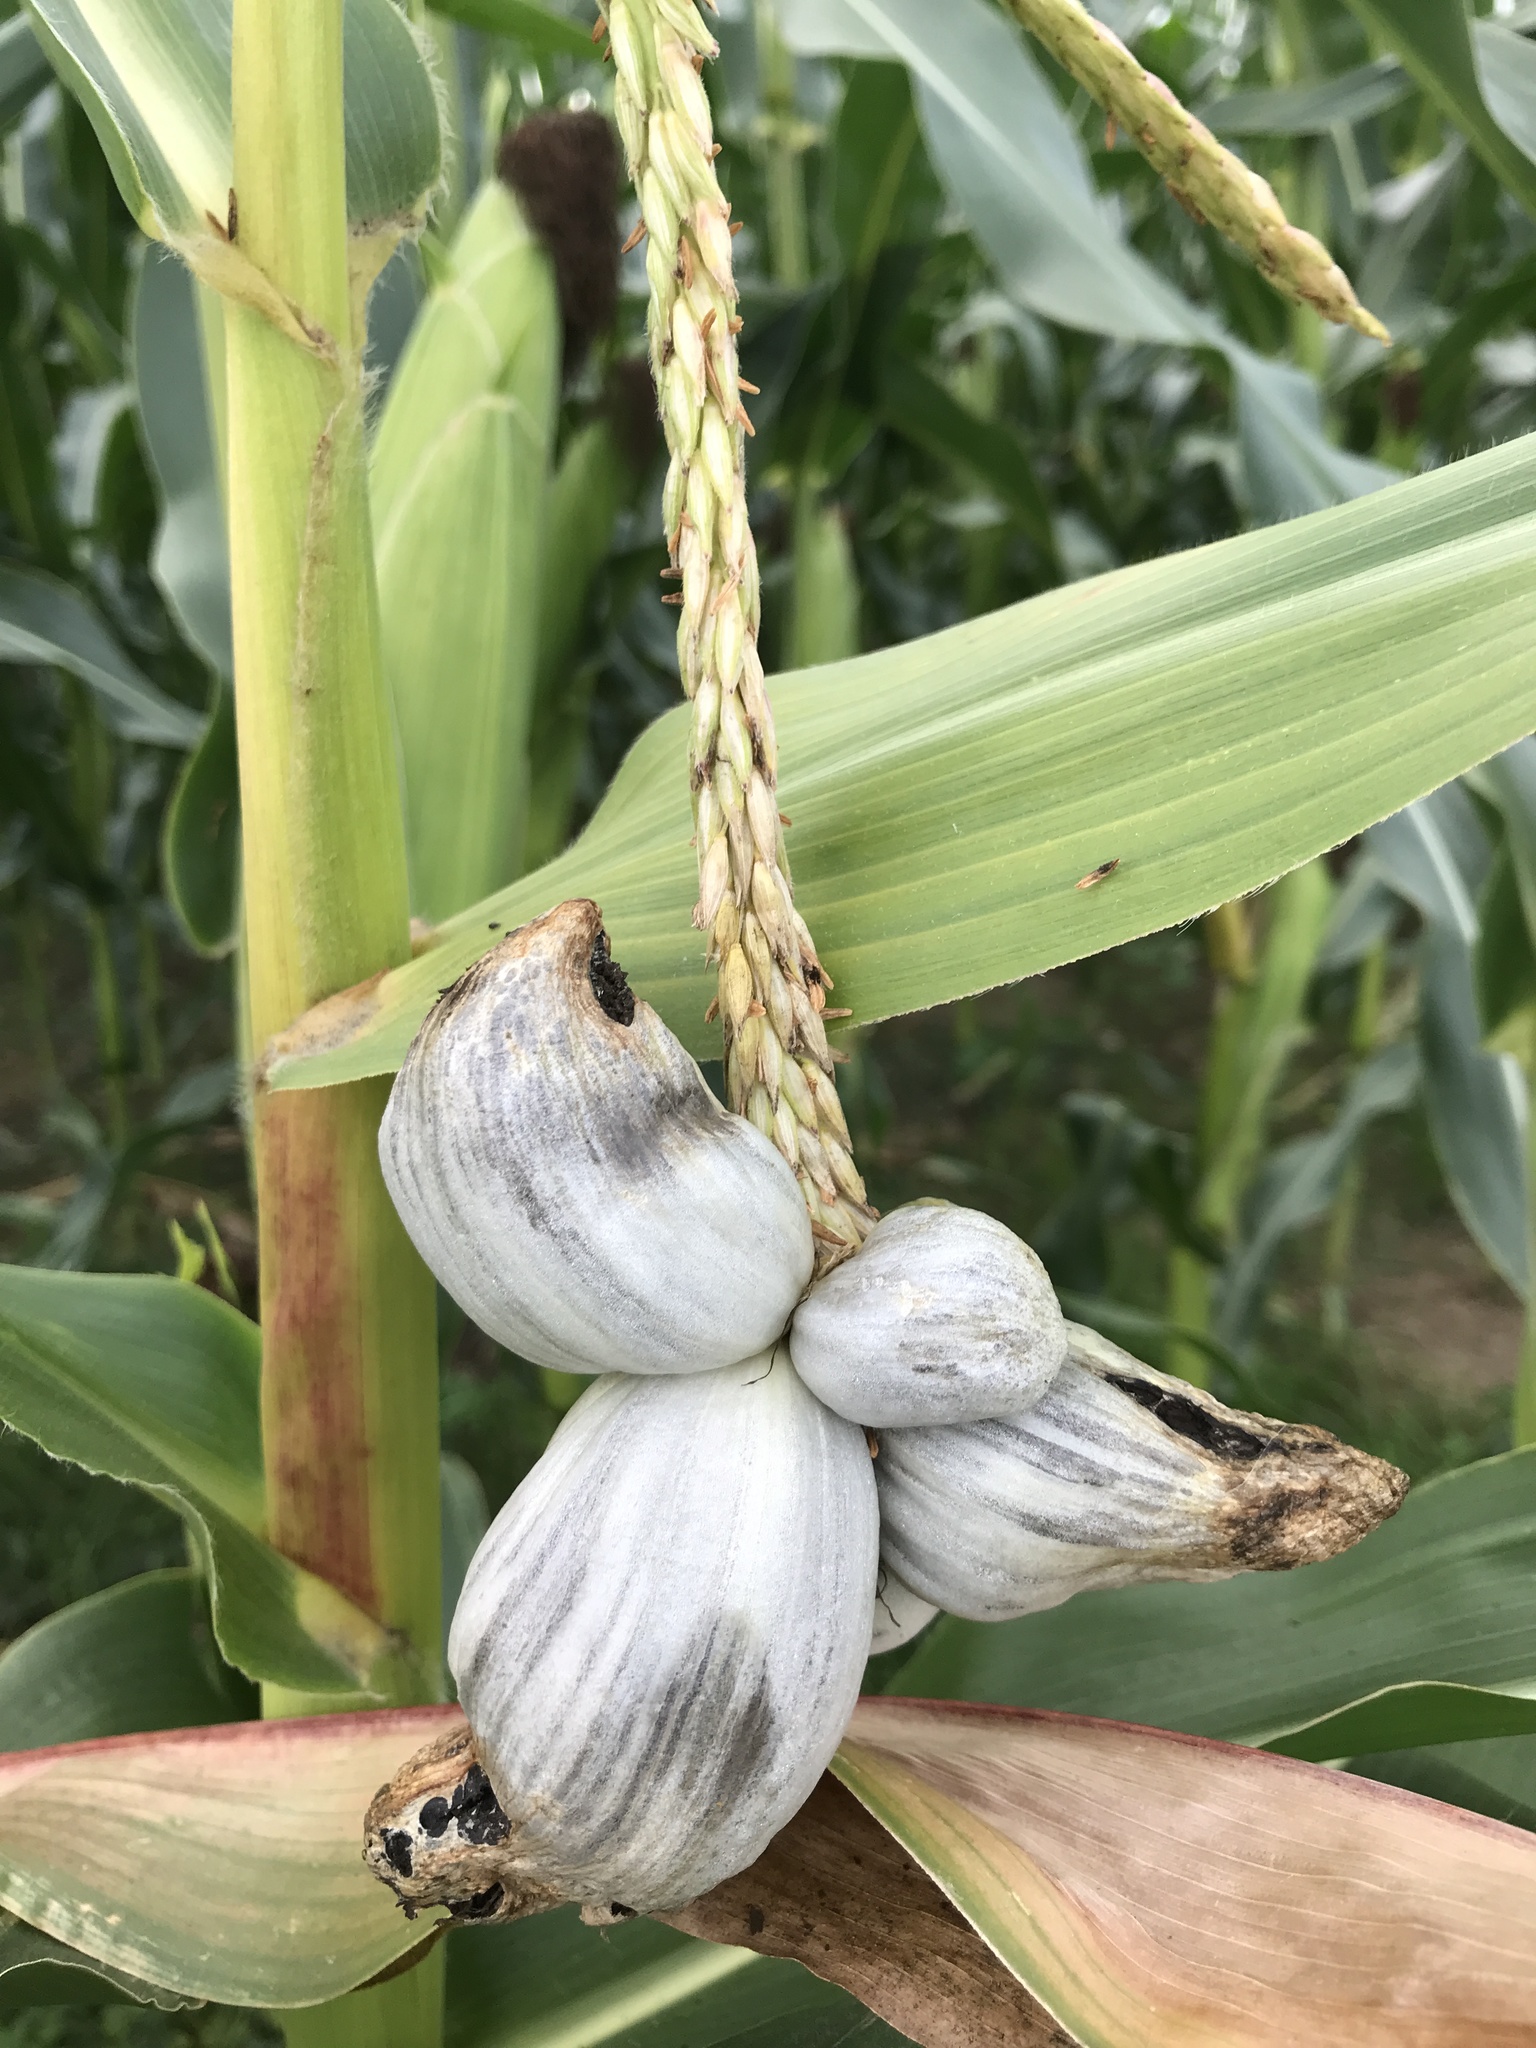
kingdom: Fungi
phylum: Basidiomycota
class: Ustilaginomycetes
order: Ustilaginales
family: Ustilaginaceae
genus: Mycosarcoma
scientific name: Mycosarcoma maydis
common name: Corn smut
